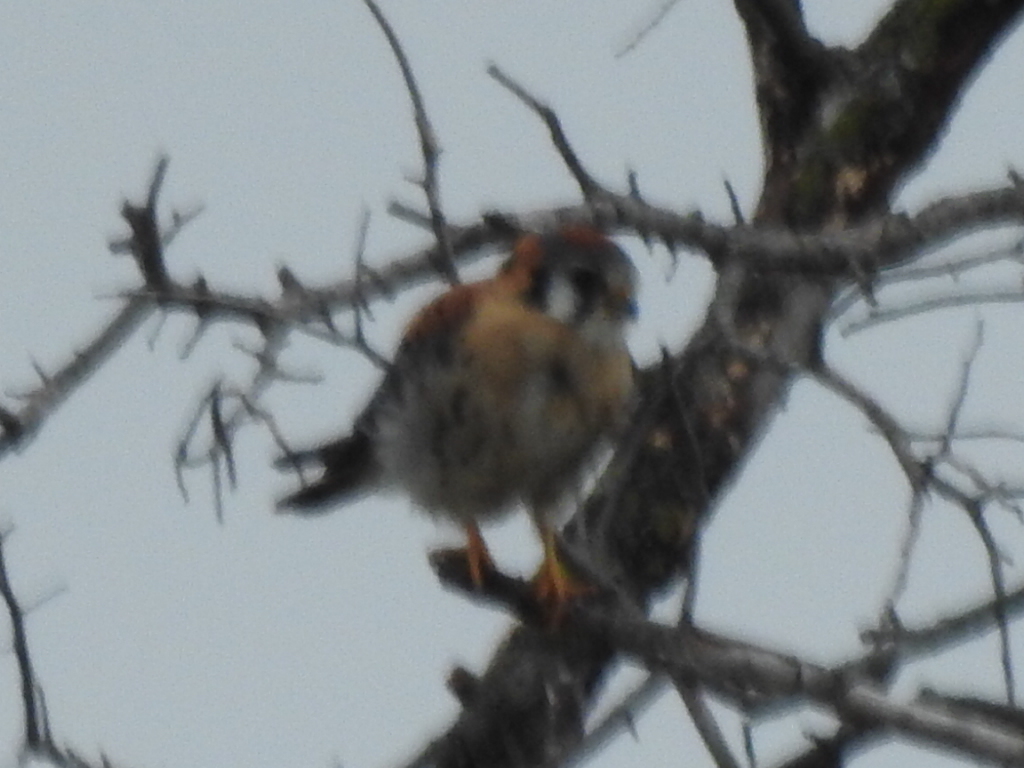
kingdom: Animalia
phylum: Chordata
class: Aves
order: Falconiformes
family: Falconidae
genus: Falco
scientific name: Falco sparverius
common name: American kestrel
